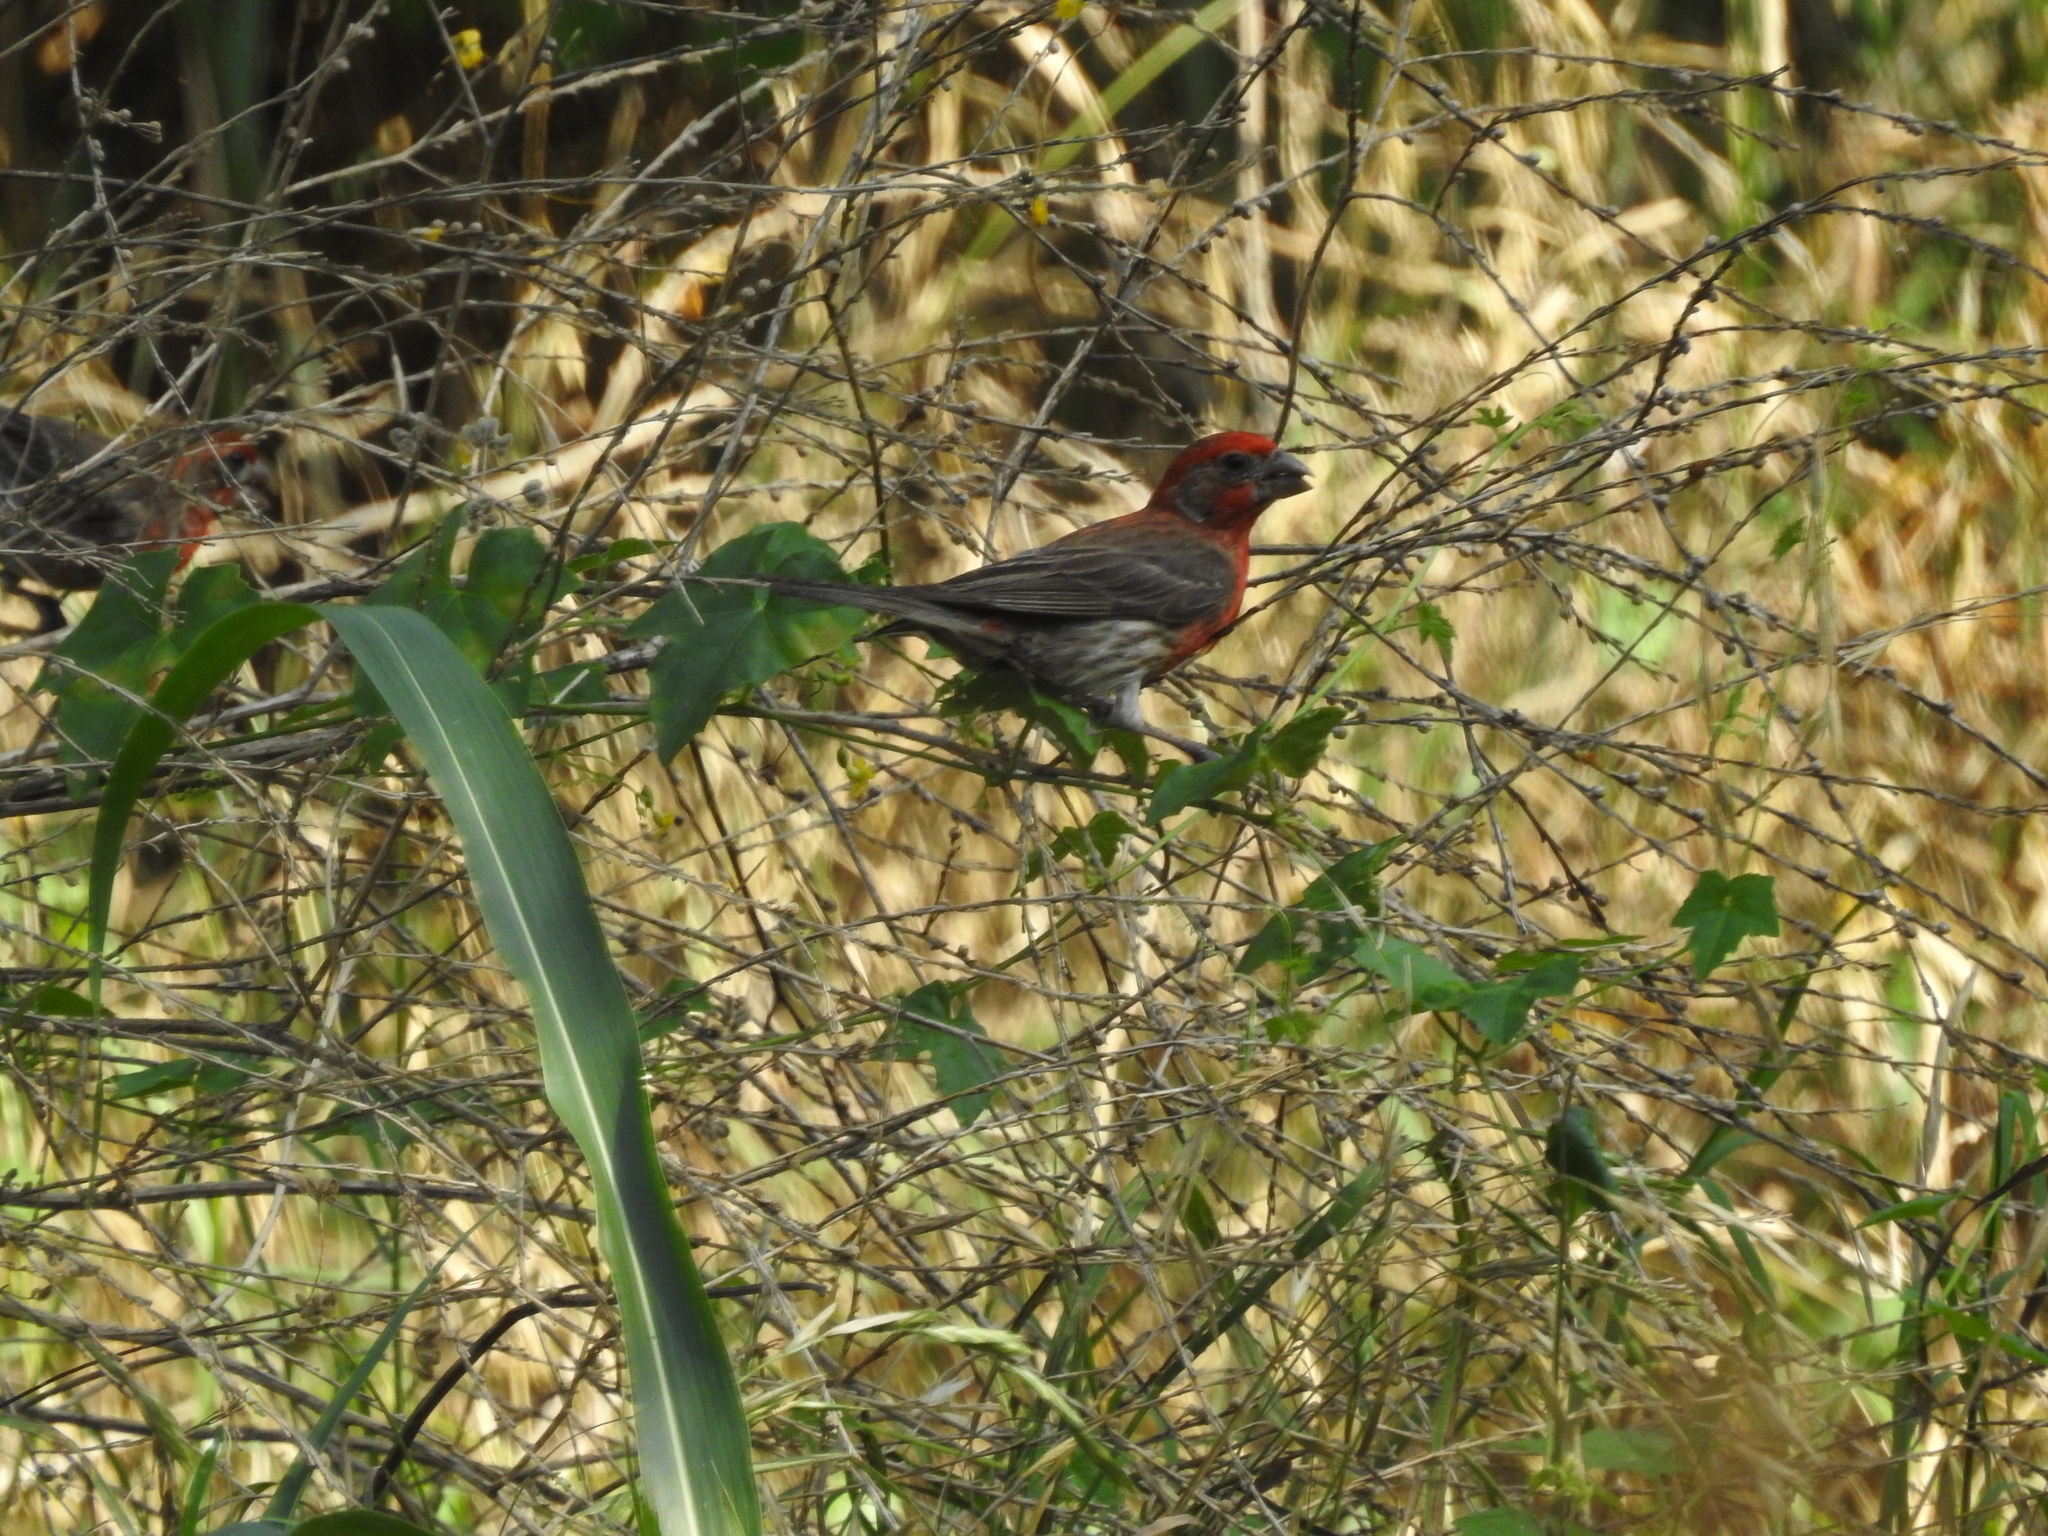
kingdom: Animalia
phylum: Chordata
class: Aves
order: Passeriformes
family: Fringillidae
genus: Haemorhous
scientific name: Haemorhous mexicanus
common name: House finch
